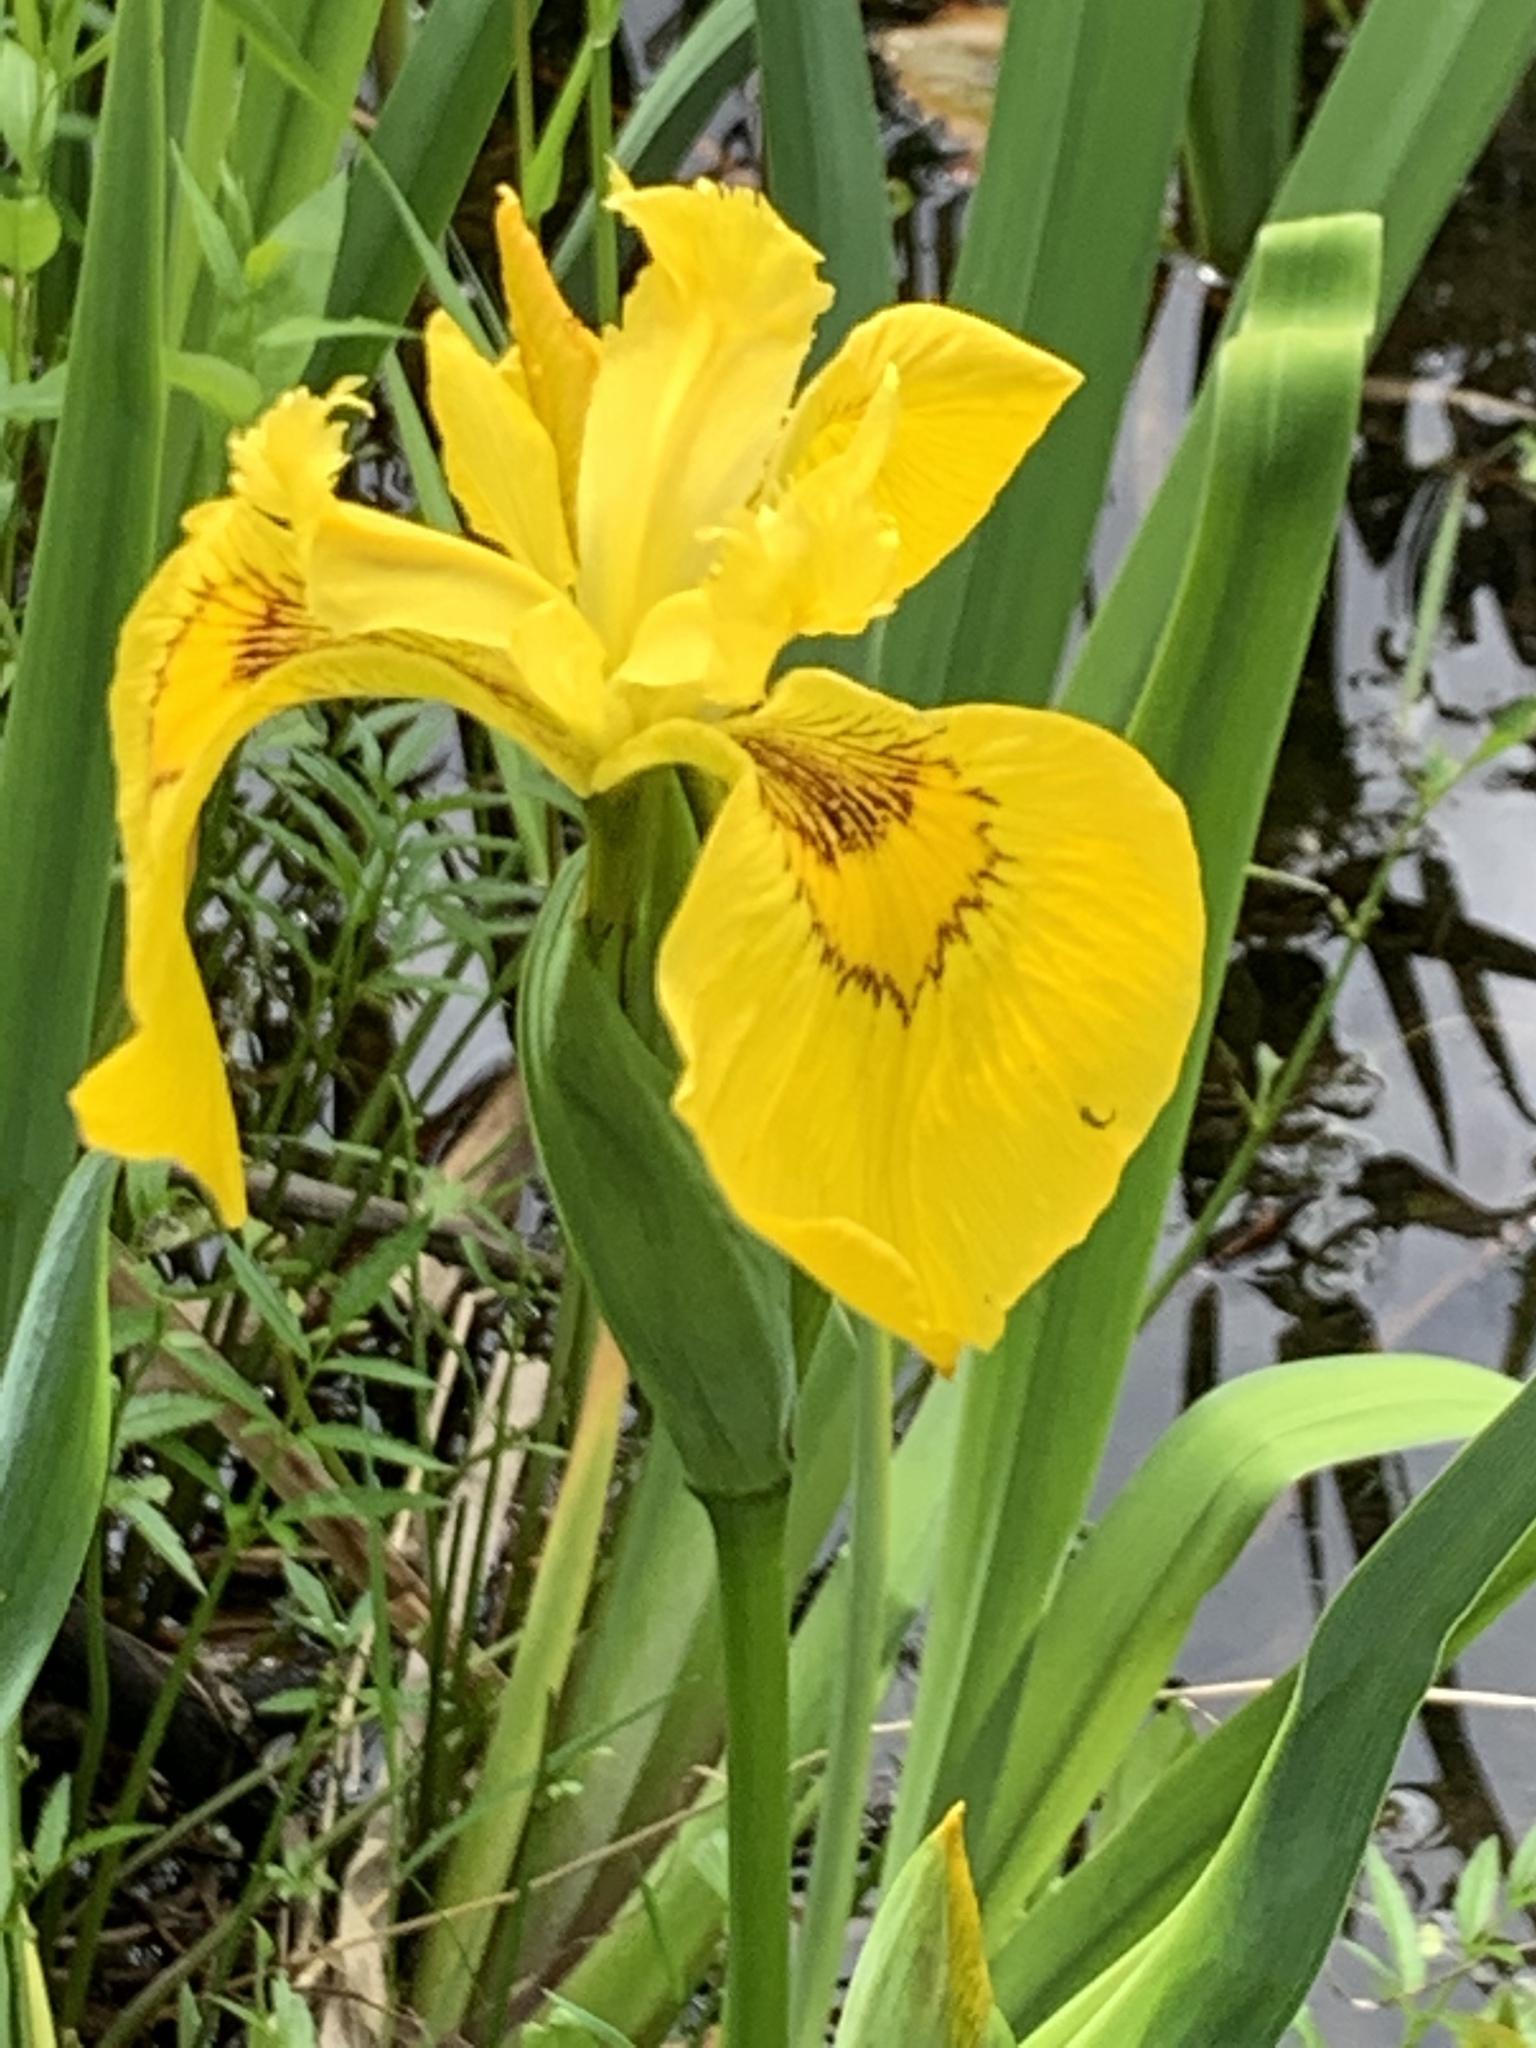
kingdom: Plantae
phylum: Tracheophyta
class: Liliopsida
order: Asparagales
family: Iridaceae
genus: Iris
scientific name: Iris pseudacorus
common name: Yellow flag
